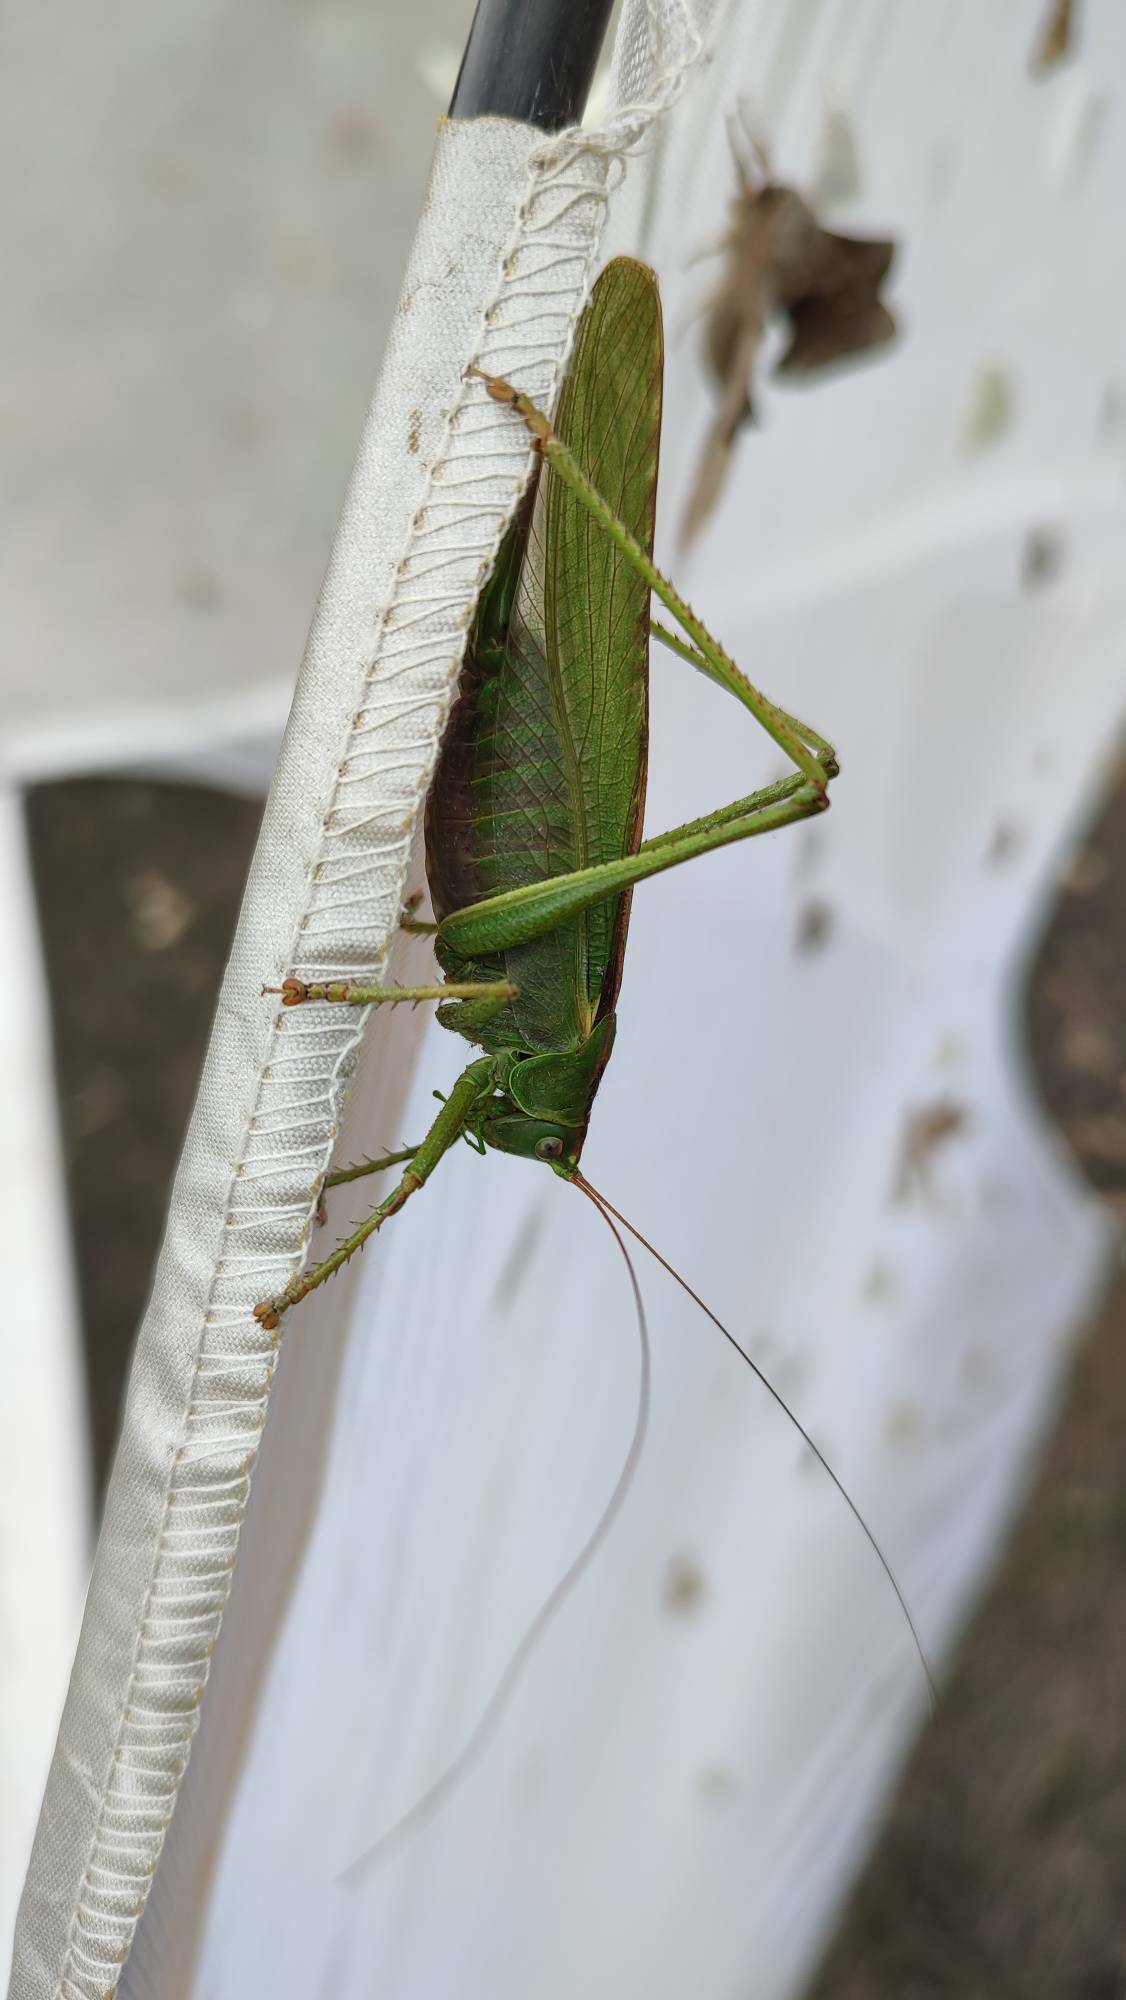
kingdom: Animalia
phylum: Arthropoda
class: Insecta
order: Orthoptera
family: Tettigoniidae
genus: Tettigonia
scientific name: Tettigonia viridissima
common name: Great green bush-cricket
